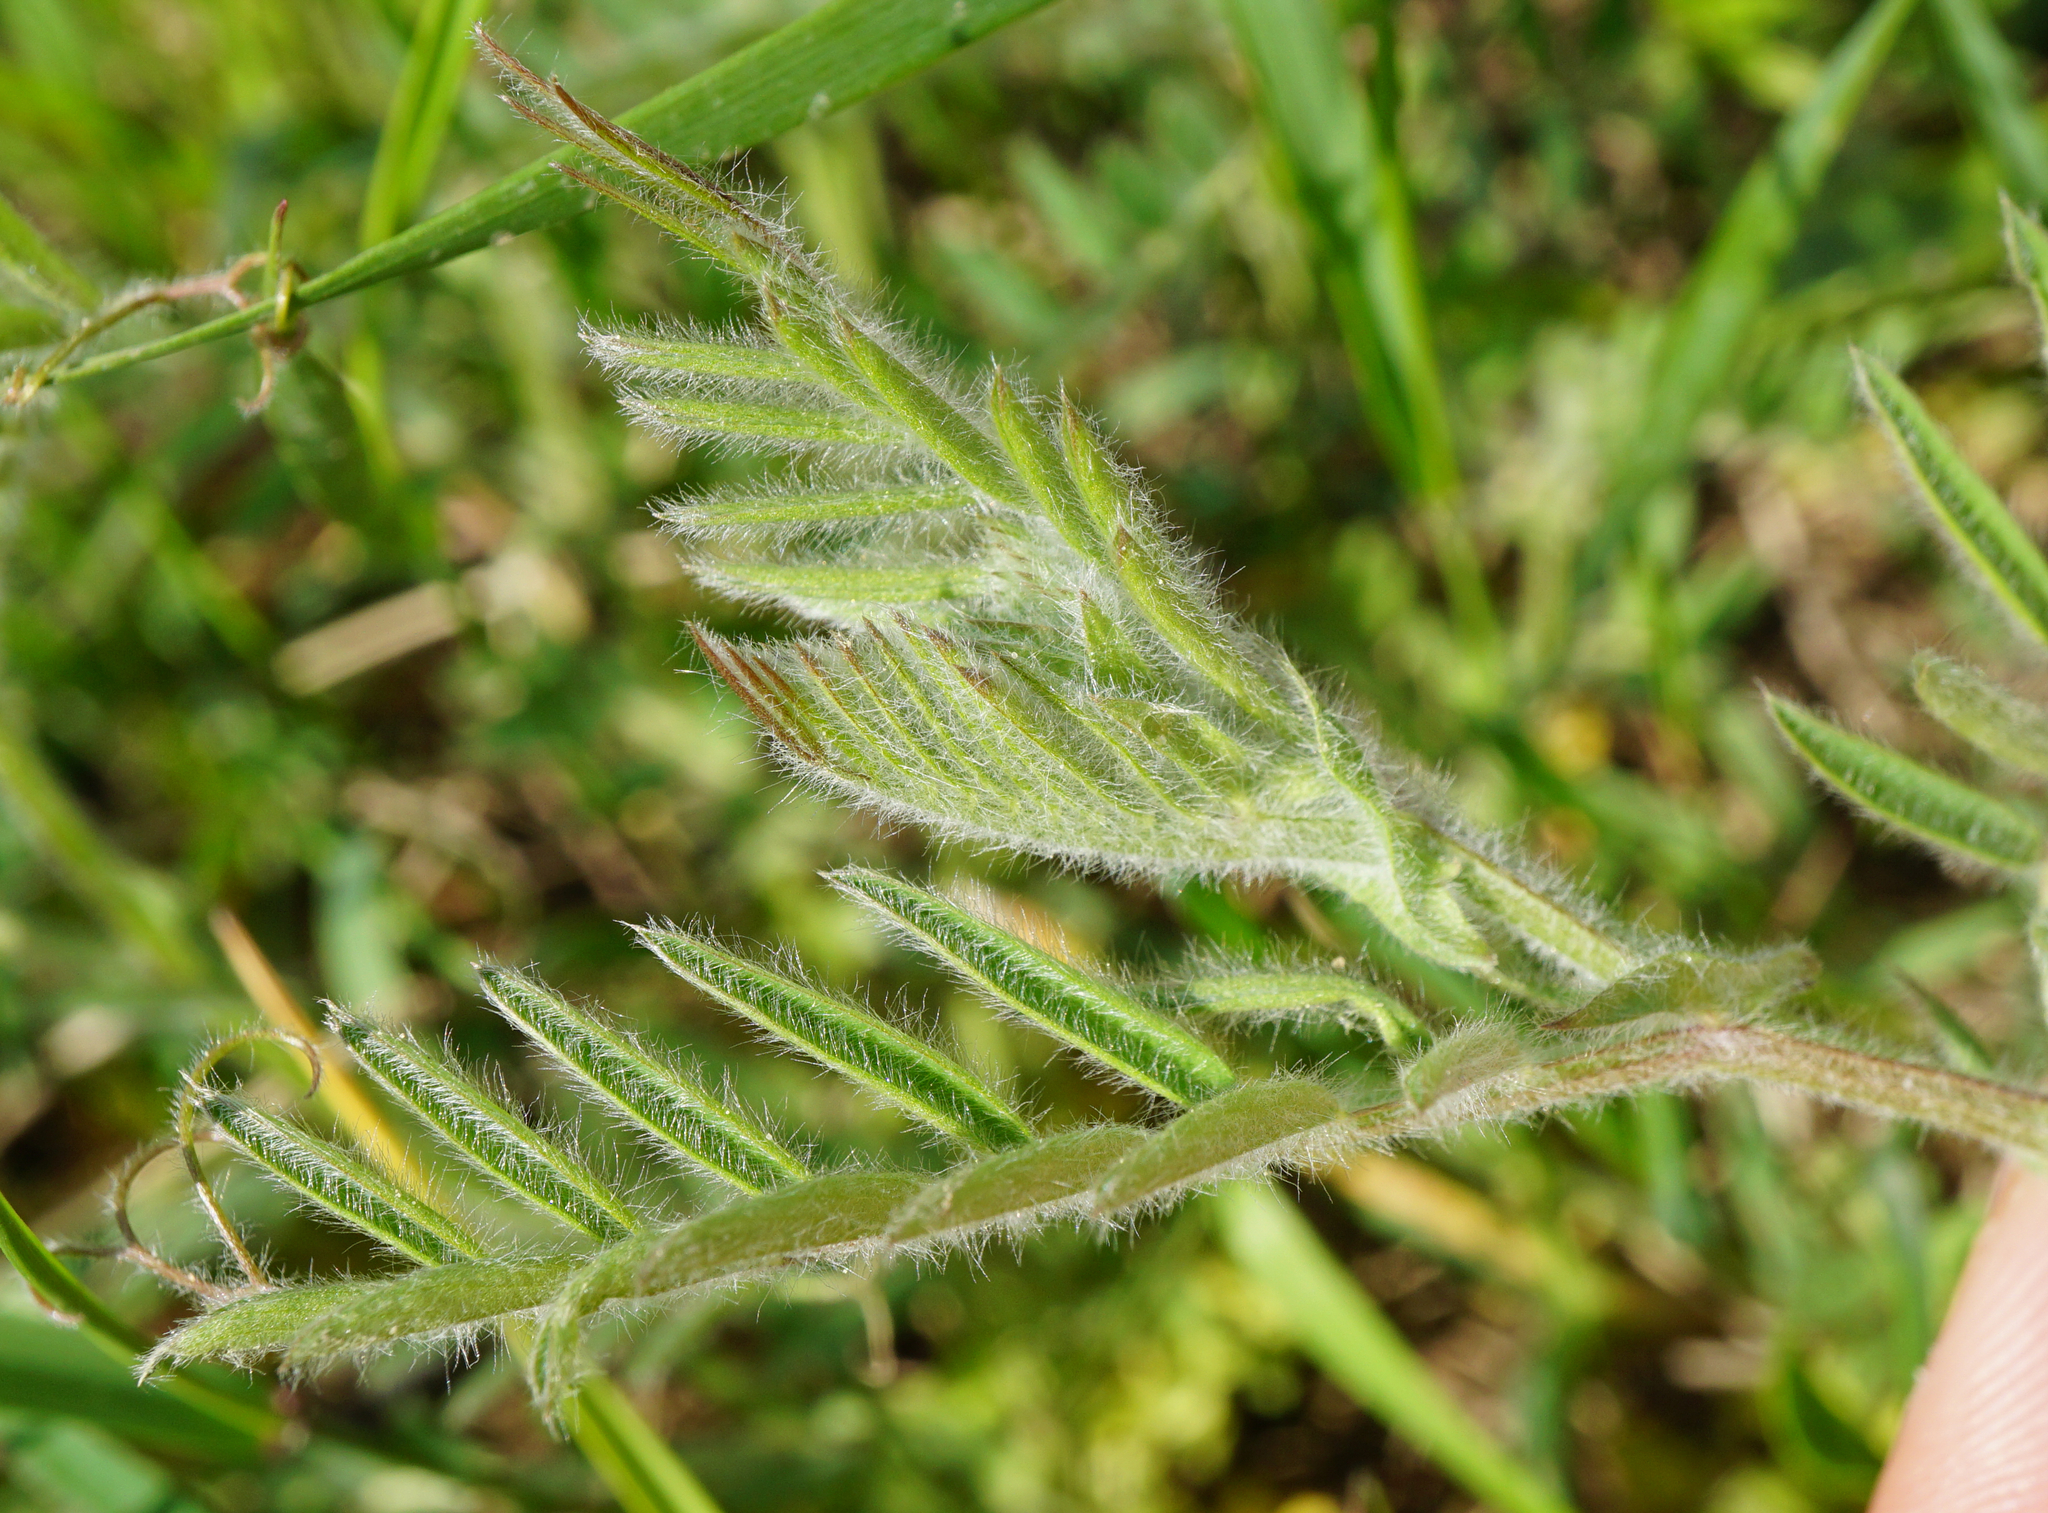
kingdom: Plantae
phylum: Tracheophyta
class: Magnoliopsida
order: Fabales
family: Fabaceae
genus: Vicia
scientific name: Vicia villosa
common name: Fodder vetch
